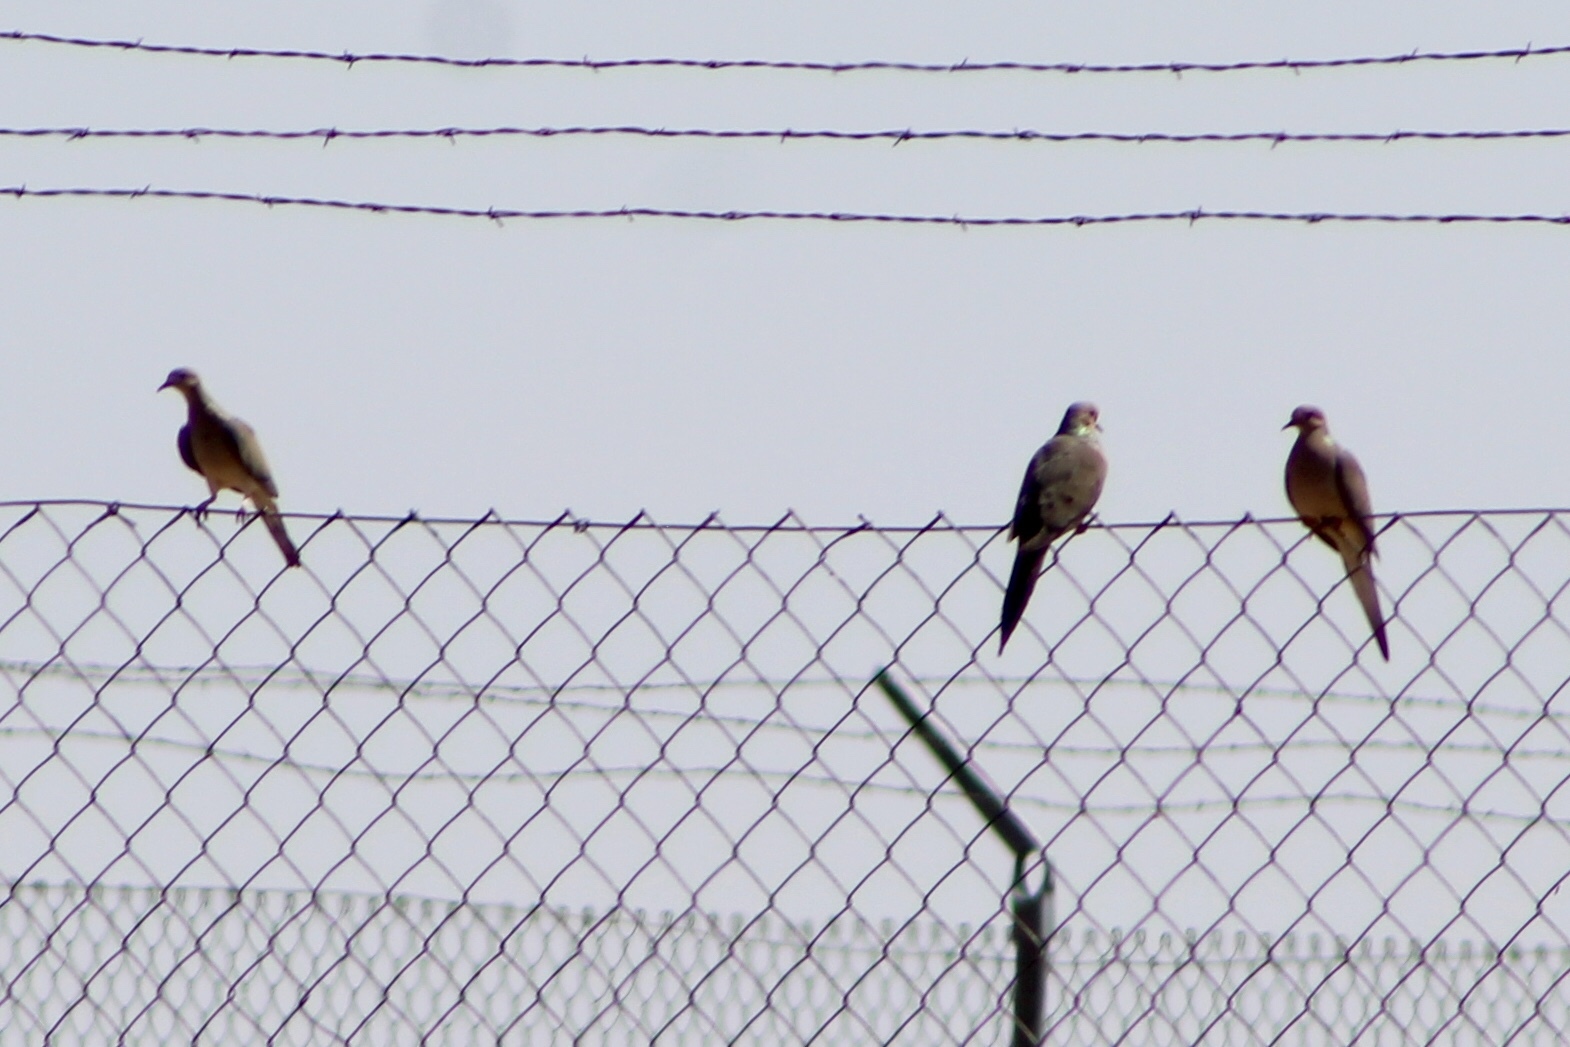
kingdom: Animalia
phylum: Chordata
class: Aves
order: Columbiformes
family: Columbidae
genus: Zenaida
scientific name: Zenaida macroura
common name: Mourning dove
